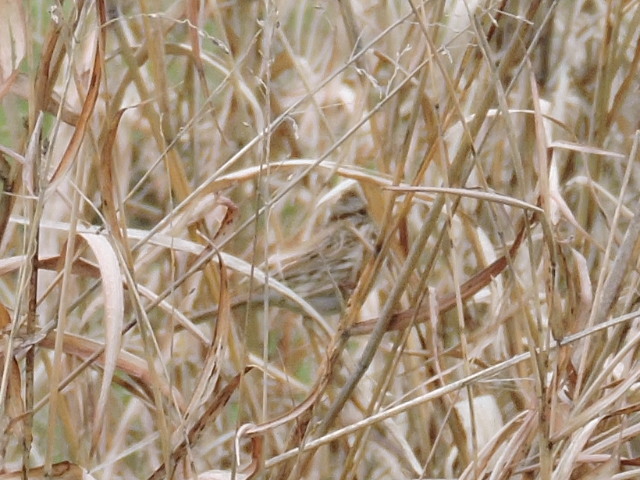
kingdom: Animalia
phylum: Chordata
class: Aves
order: Passeriformes
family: Passerellidae
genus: Melospiza
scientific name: Melospiza melodia
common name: Song sparrow
